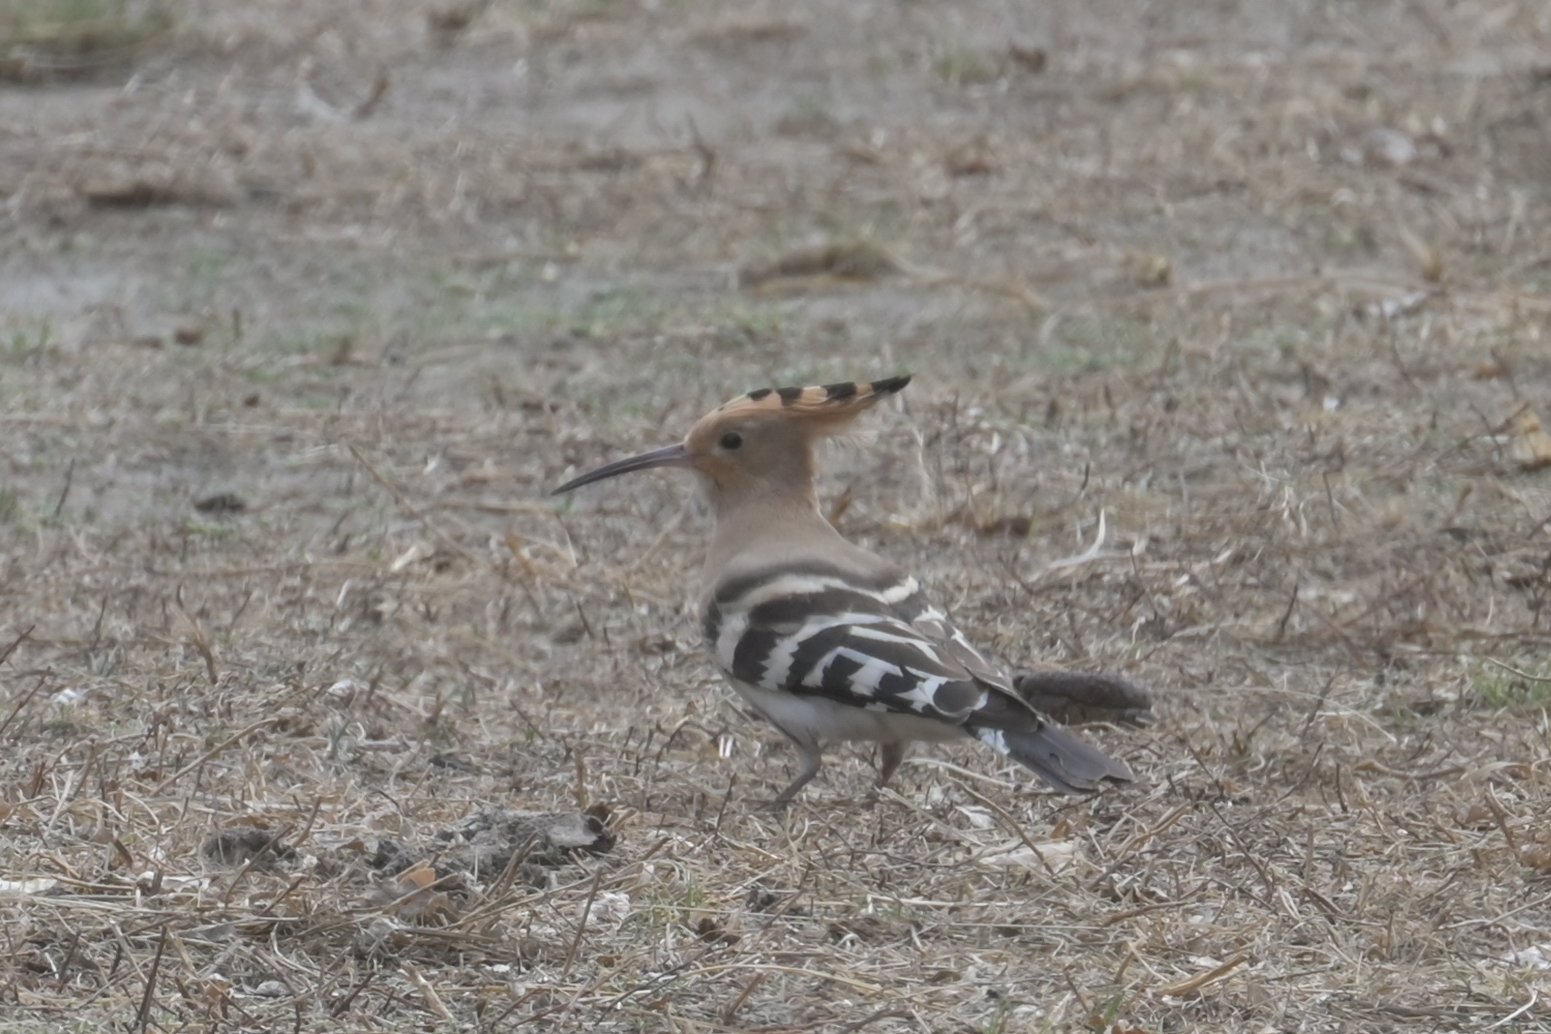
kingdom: Animalia
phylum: Chordata
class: Aves
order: Bucerotiformes
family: Upupidae
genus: Upupa
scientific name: Upupa epops
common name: Eurasian hoopoe
